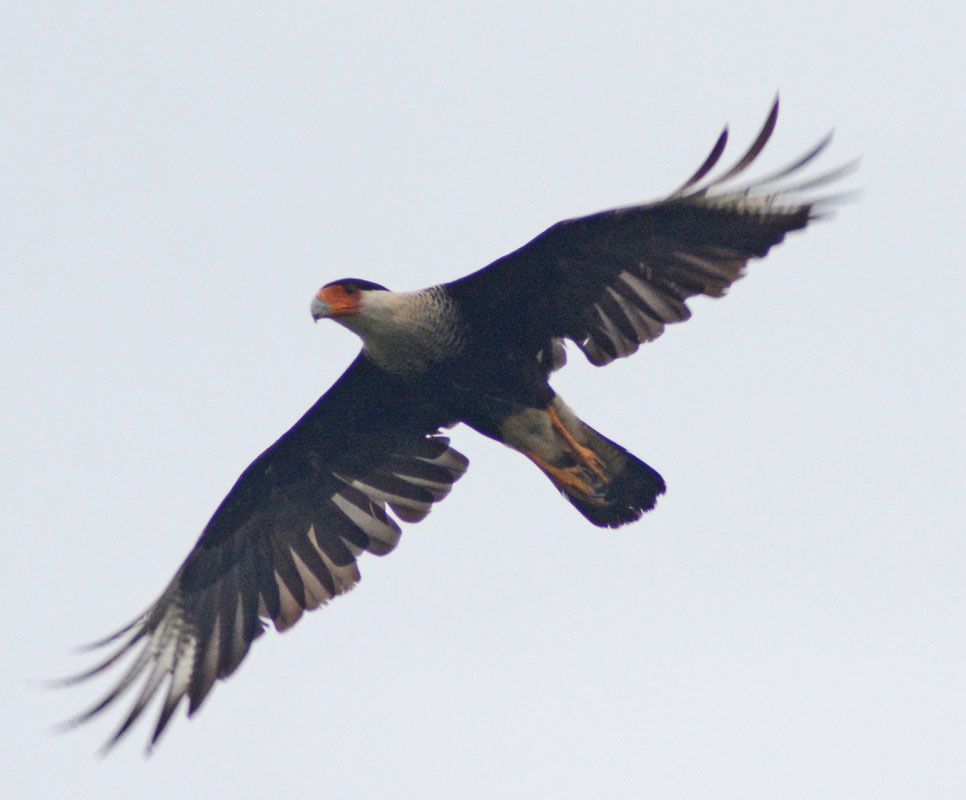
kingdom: Animalia
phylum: Chordata
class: Aves
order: Falconiformes
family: Falconidae
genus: Caracara
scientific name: Caracara plancus
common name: Southern caracara
